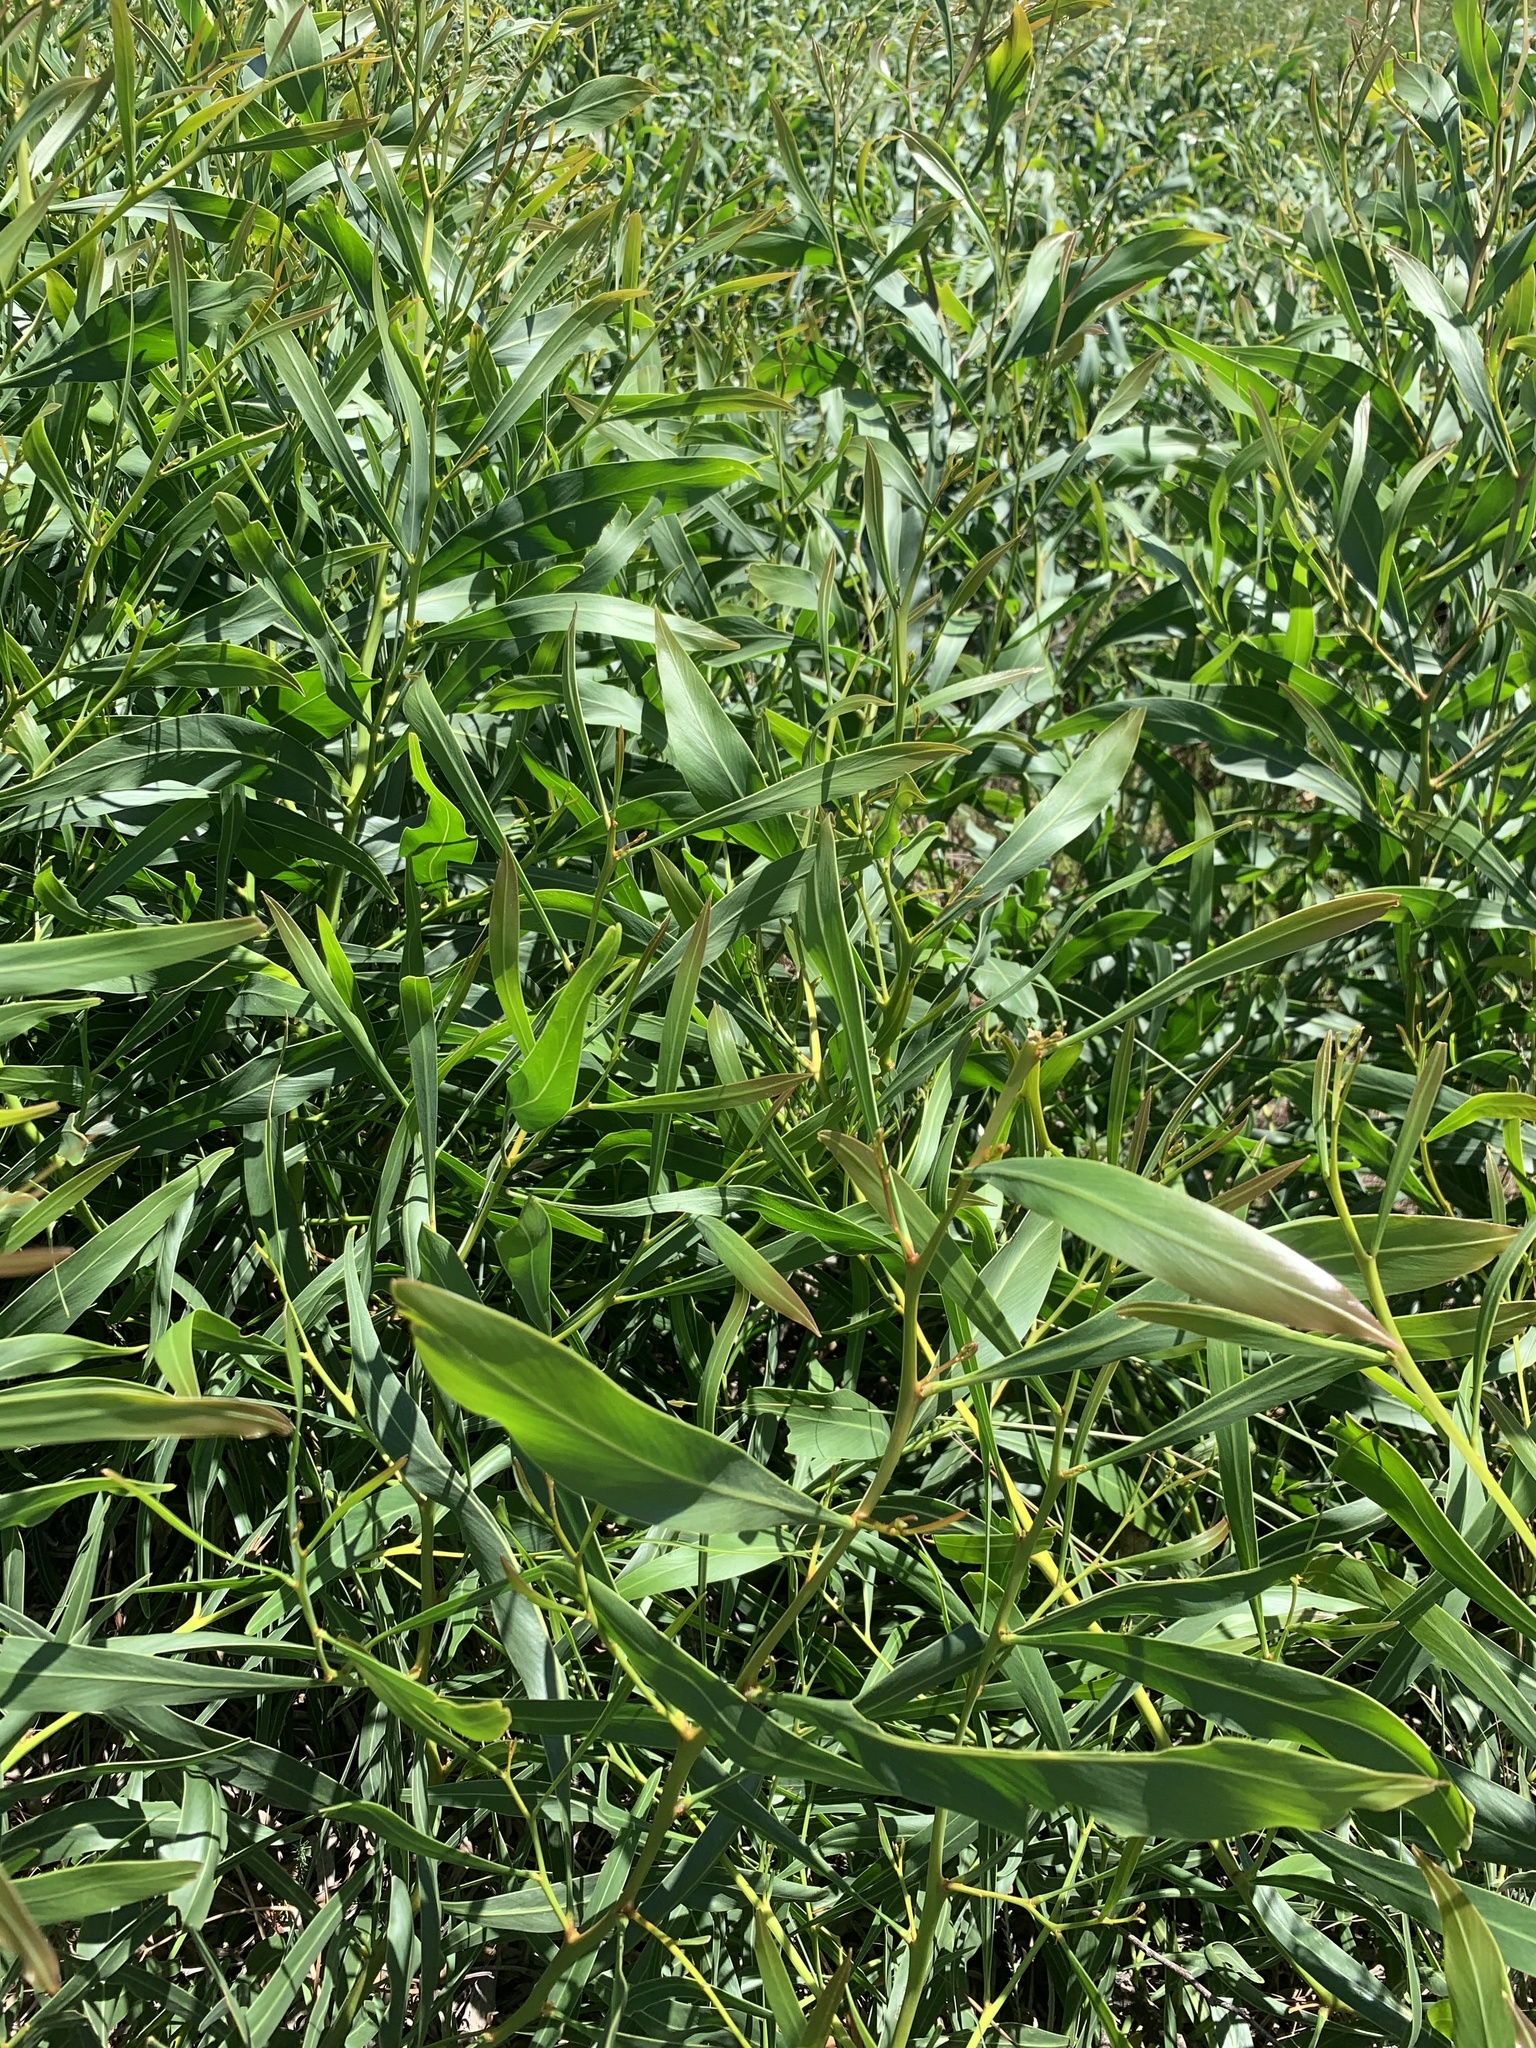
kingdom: Plantae
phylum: Tracheophyta
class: Magnoliopsida
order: Fabales
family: Fabaceae
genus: Acacia
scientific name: Acacia saligna
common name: Orange wattle
